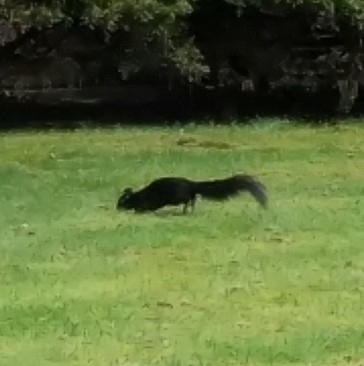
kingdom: Animalia
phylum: Chordata
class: Mammalia
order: Rodentia
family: Sciuridae
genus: Sciurus
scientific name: Sciurus carolinensis
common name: Eastern gray squirrel
